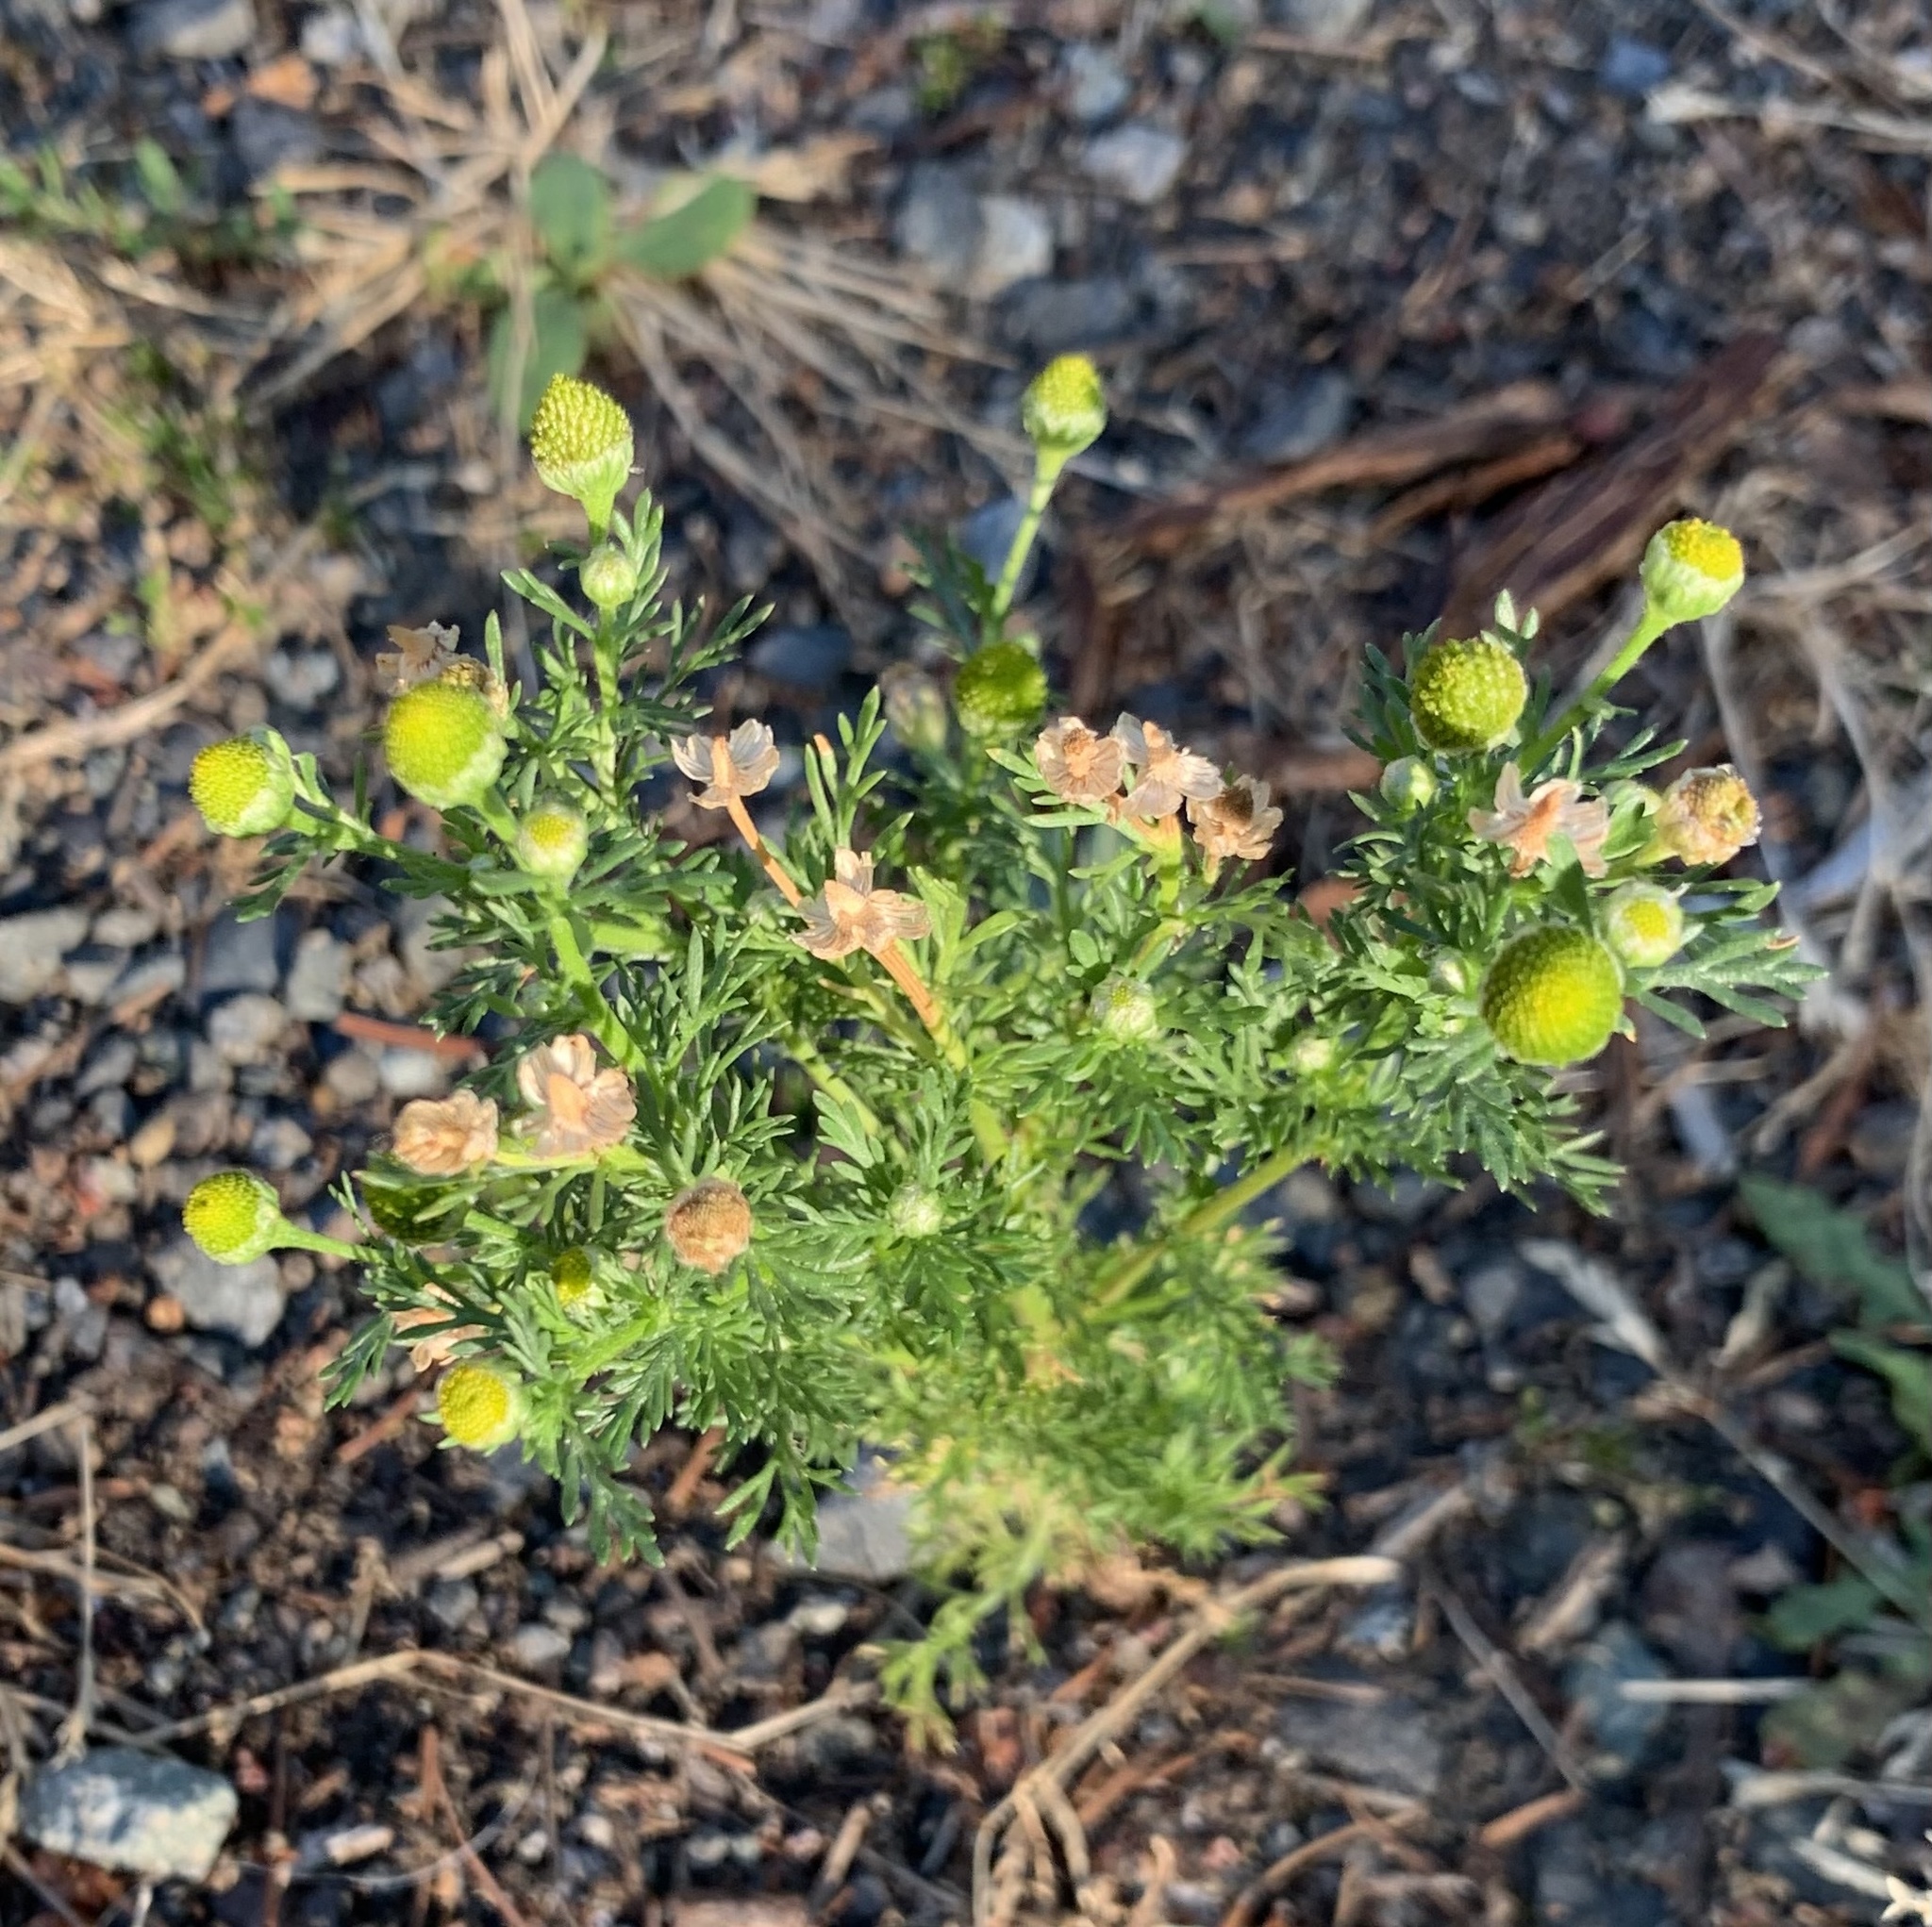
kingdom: Plantae
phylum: Tracheophyta
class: Magnoliopsida
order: Asterales
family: Asteraceae
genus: Matricaria
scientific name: Matricaria discoidea
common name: Disc mayweed
